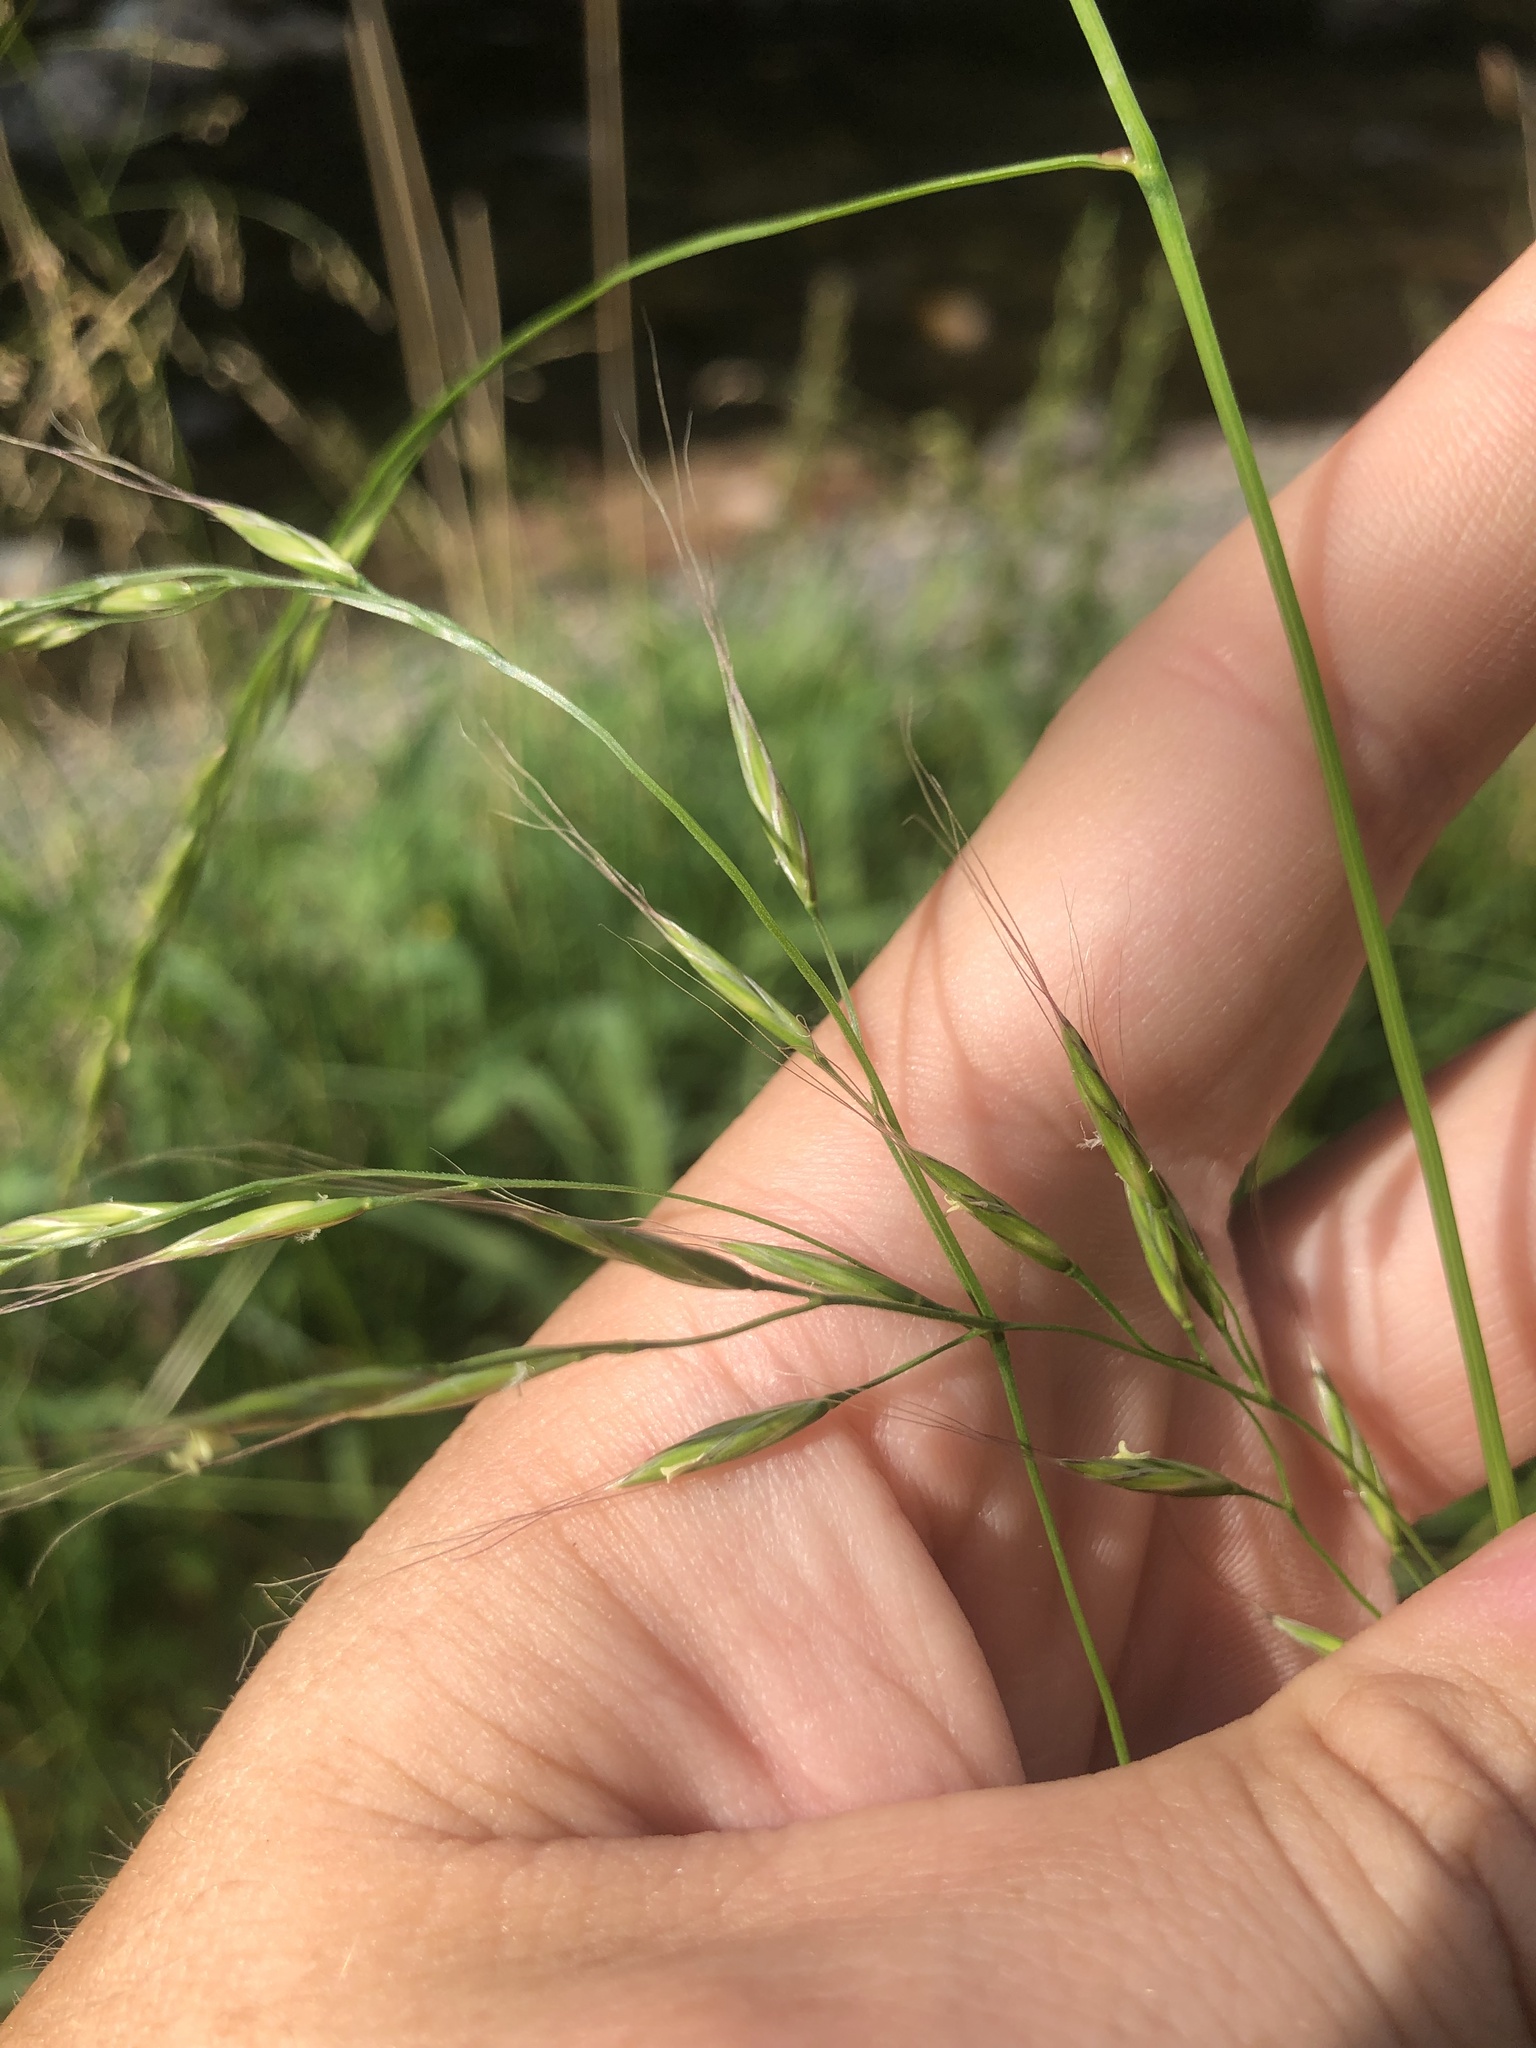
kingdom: Plantae
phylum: Tracheophyta
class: Liliopsida
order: Poales
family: Poaceae
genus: Lolium
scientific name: Lolium giganteum
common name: Giant fescue
